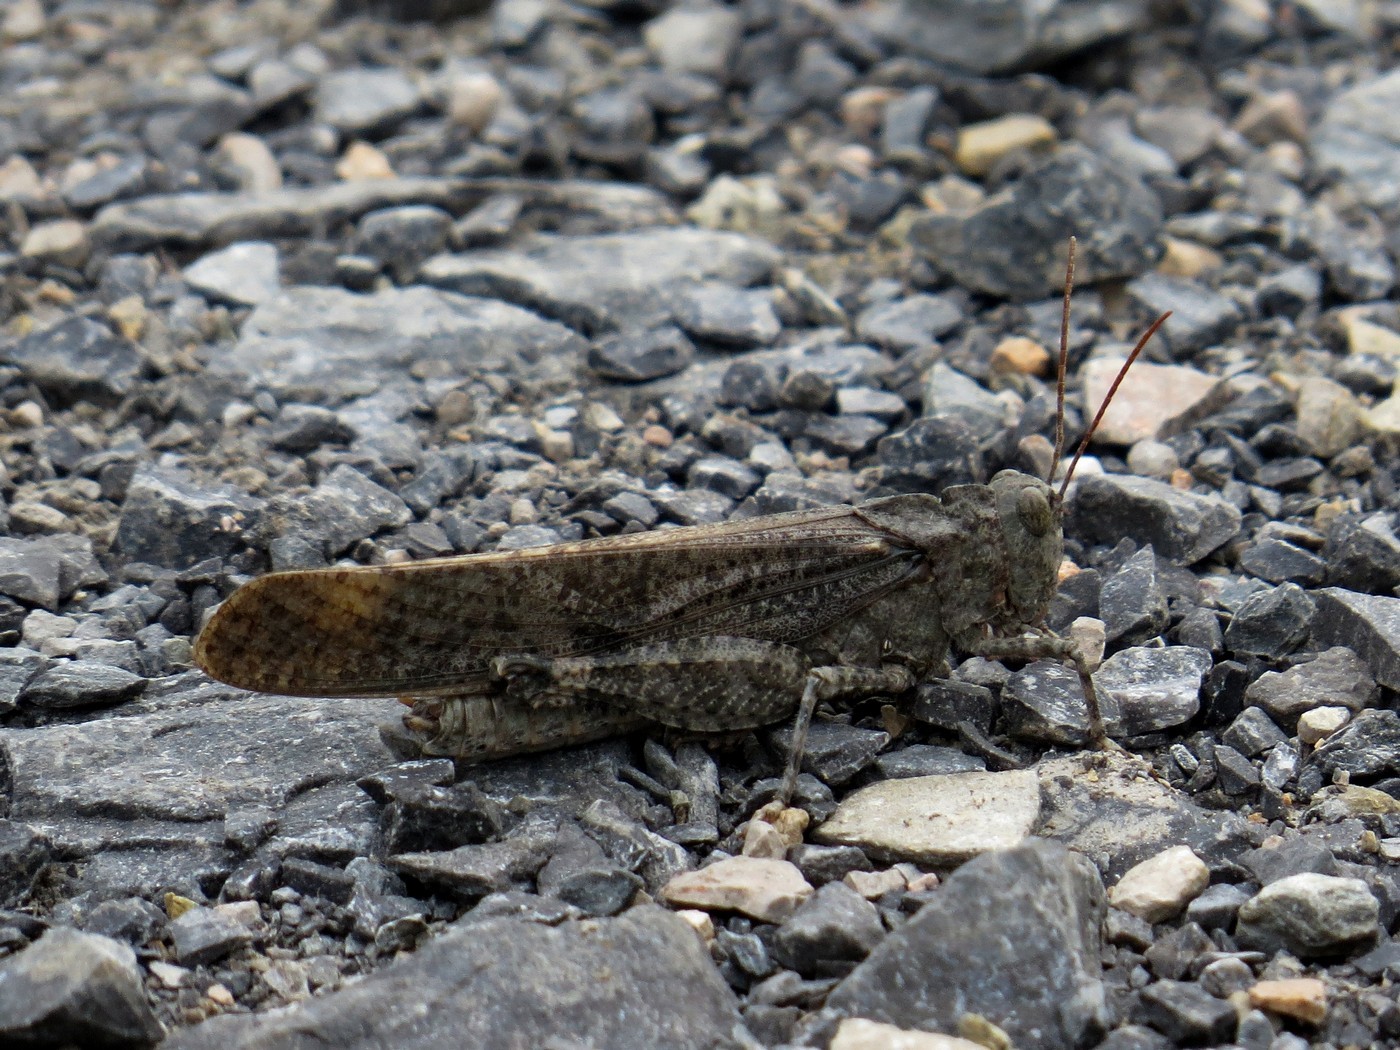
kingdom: Animalia
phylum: Arthropoda
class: Insecta
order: Orthoptera
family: Acrididae
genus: Dissosteira
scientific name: Dissosteira carolina
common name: Carolina grasshopper
